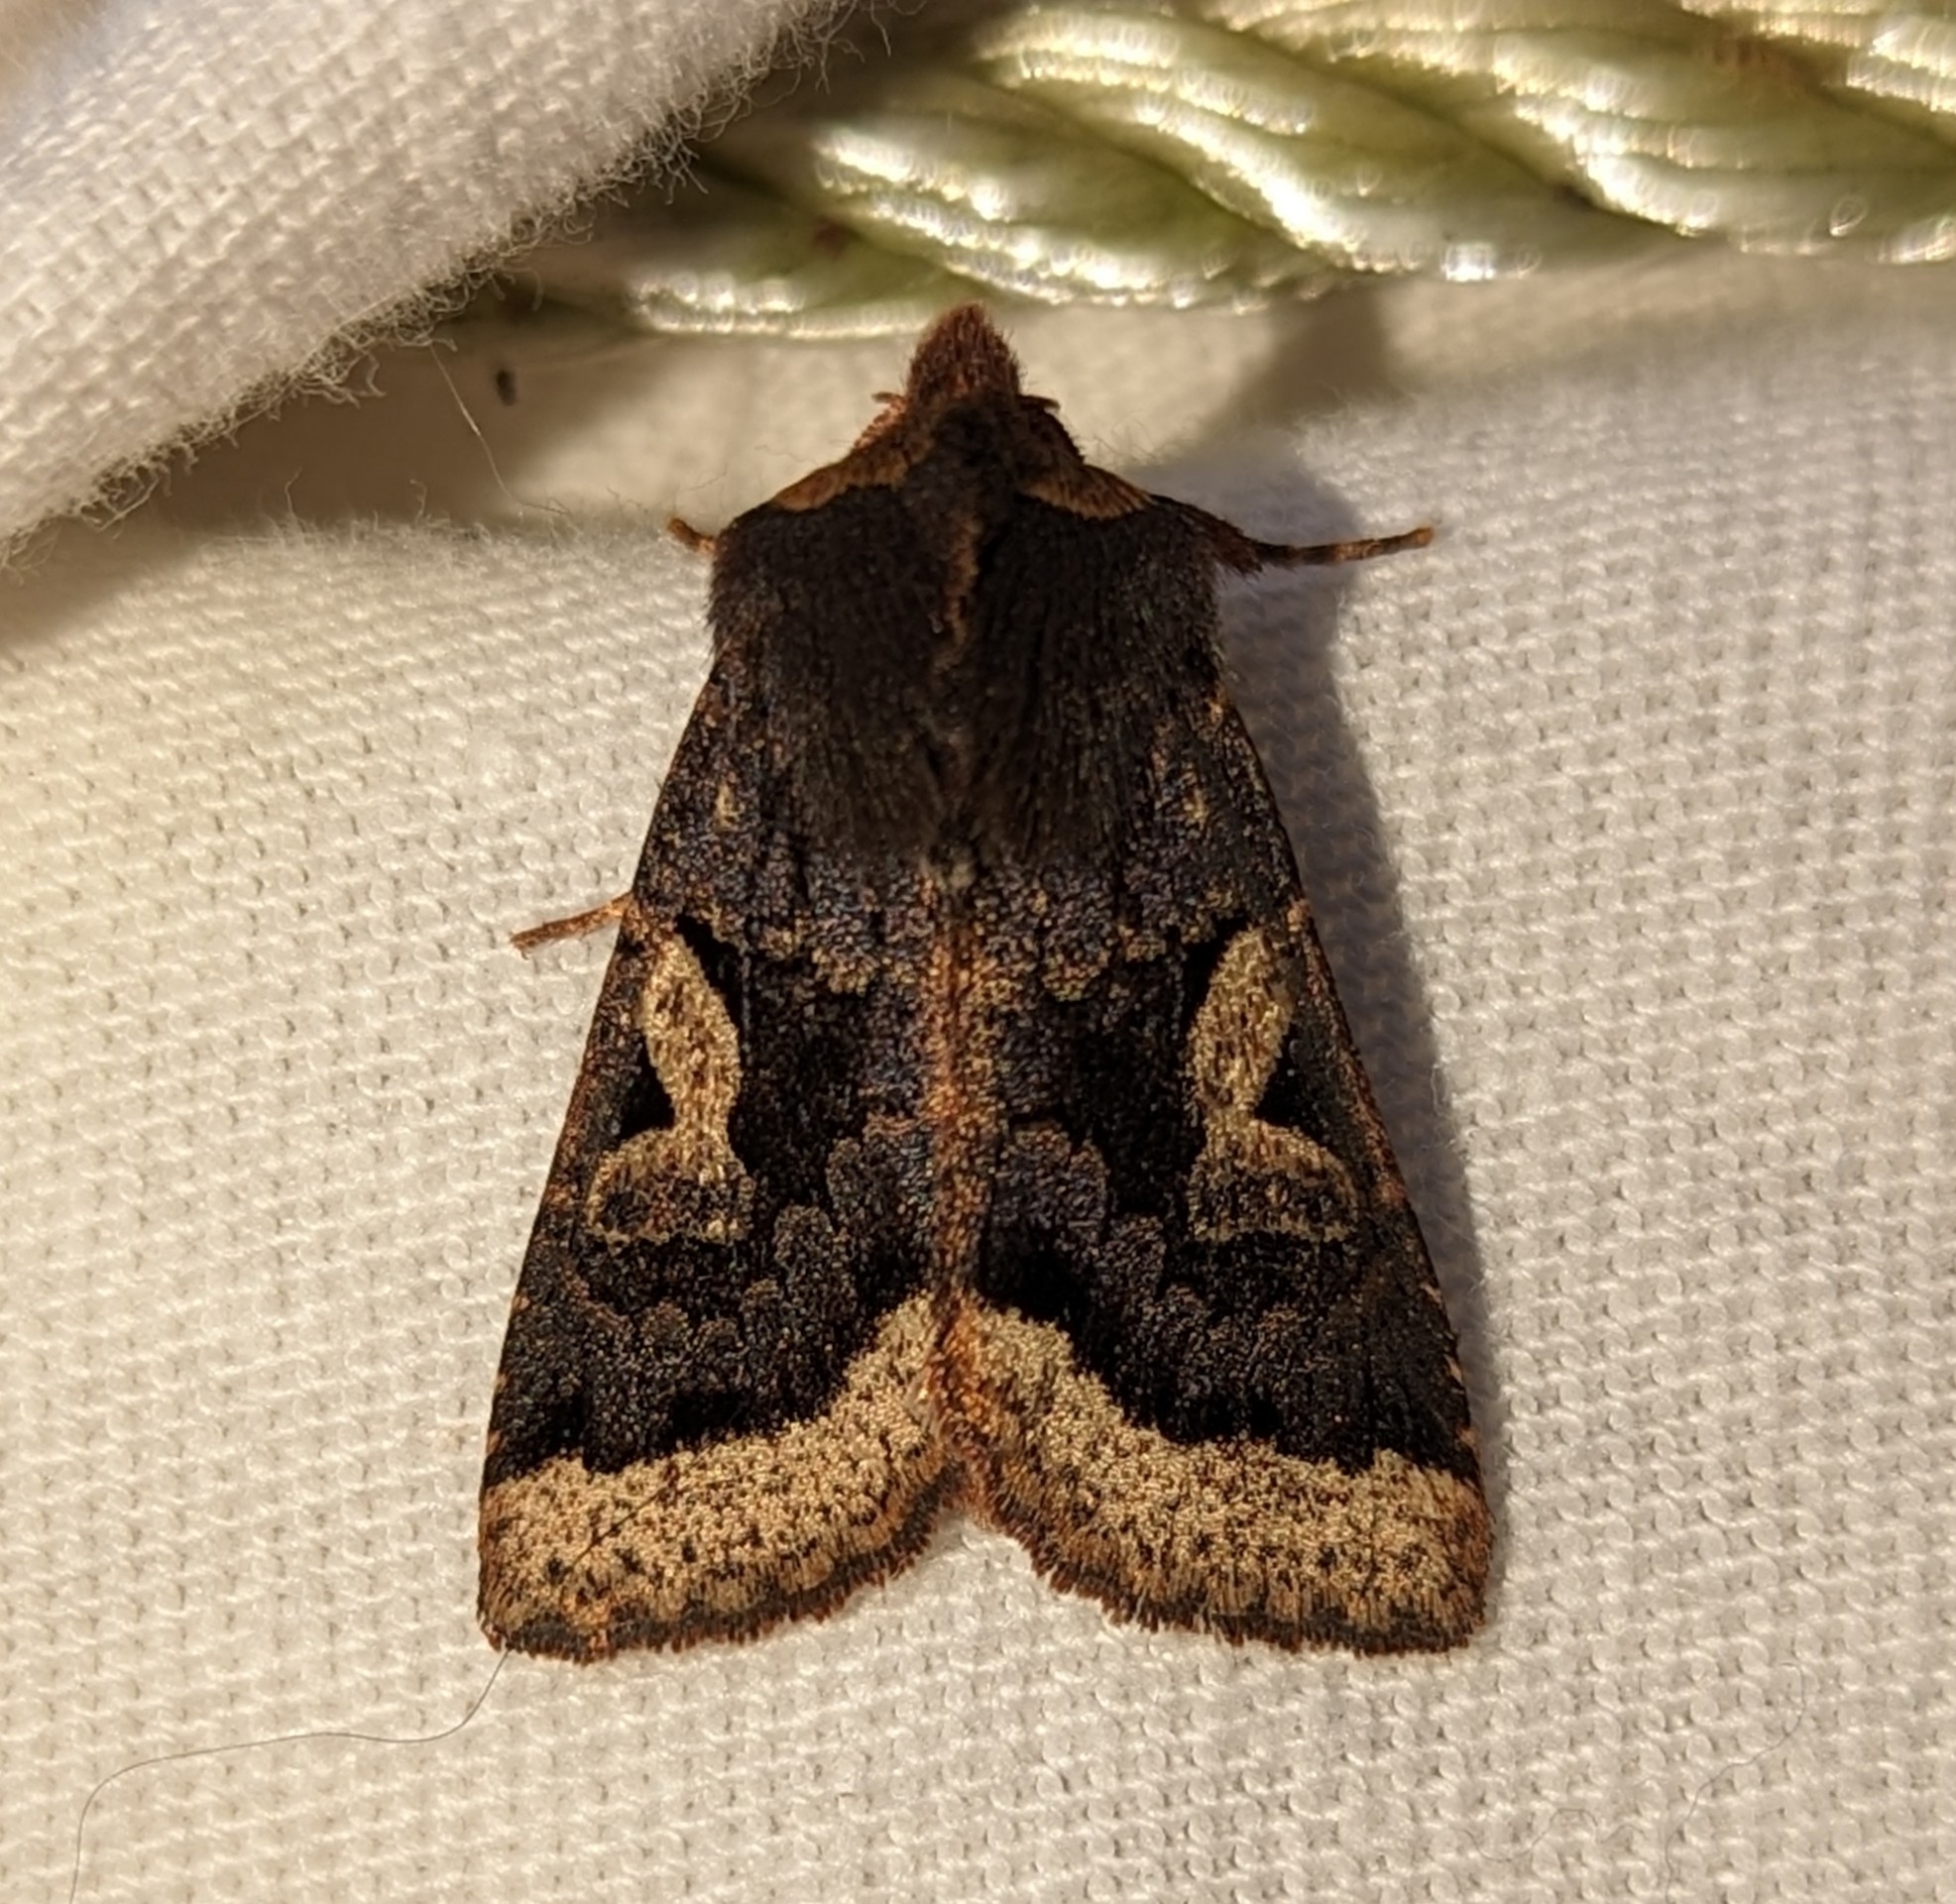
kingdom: Animalia
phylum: Arthropoda
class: Insecta
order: Lepidoptera
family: Noctuidae
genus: Orthosia
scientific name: Orthosia praeses
